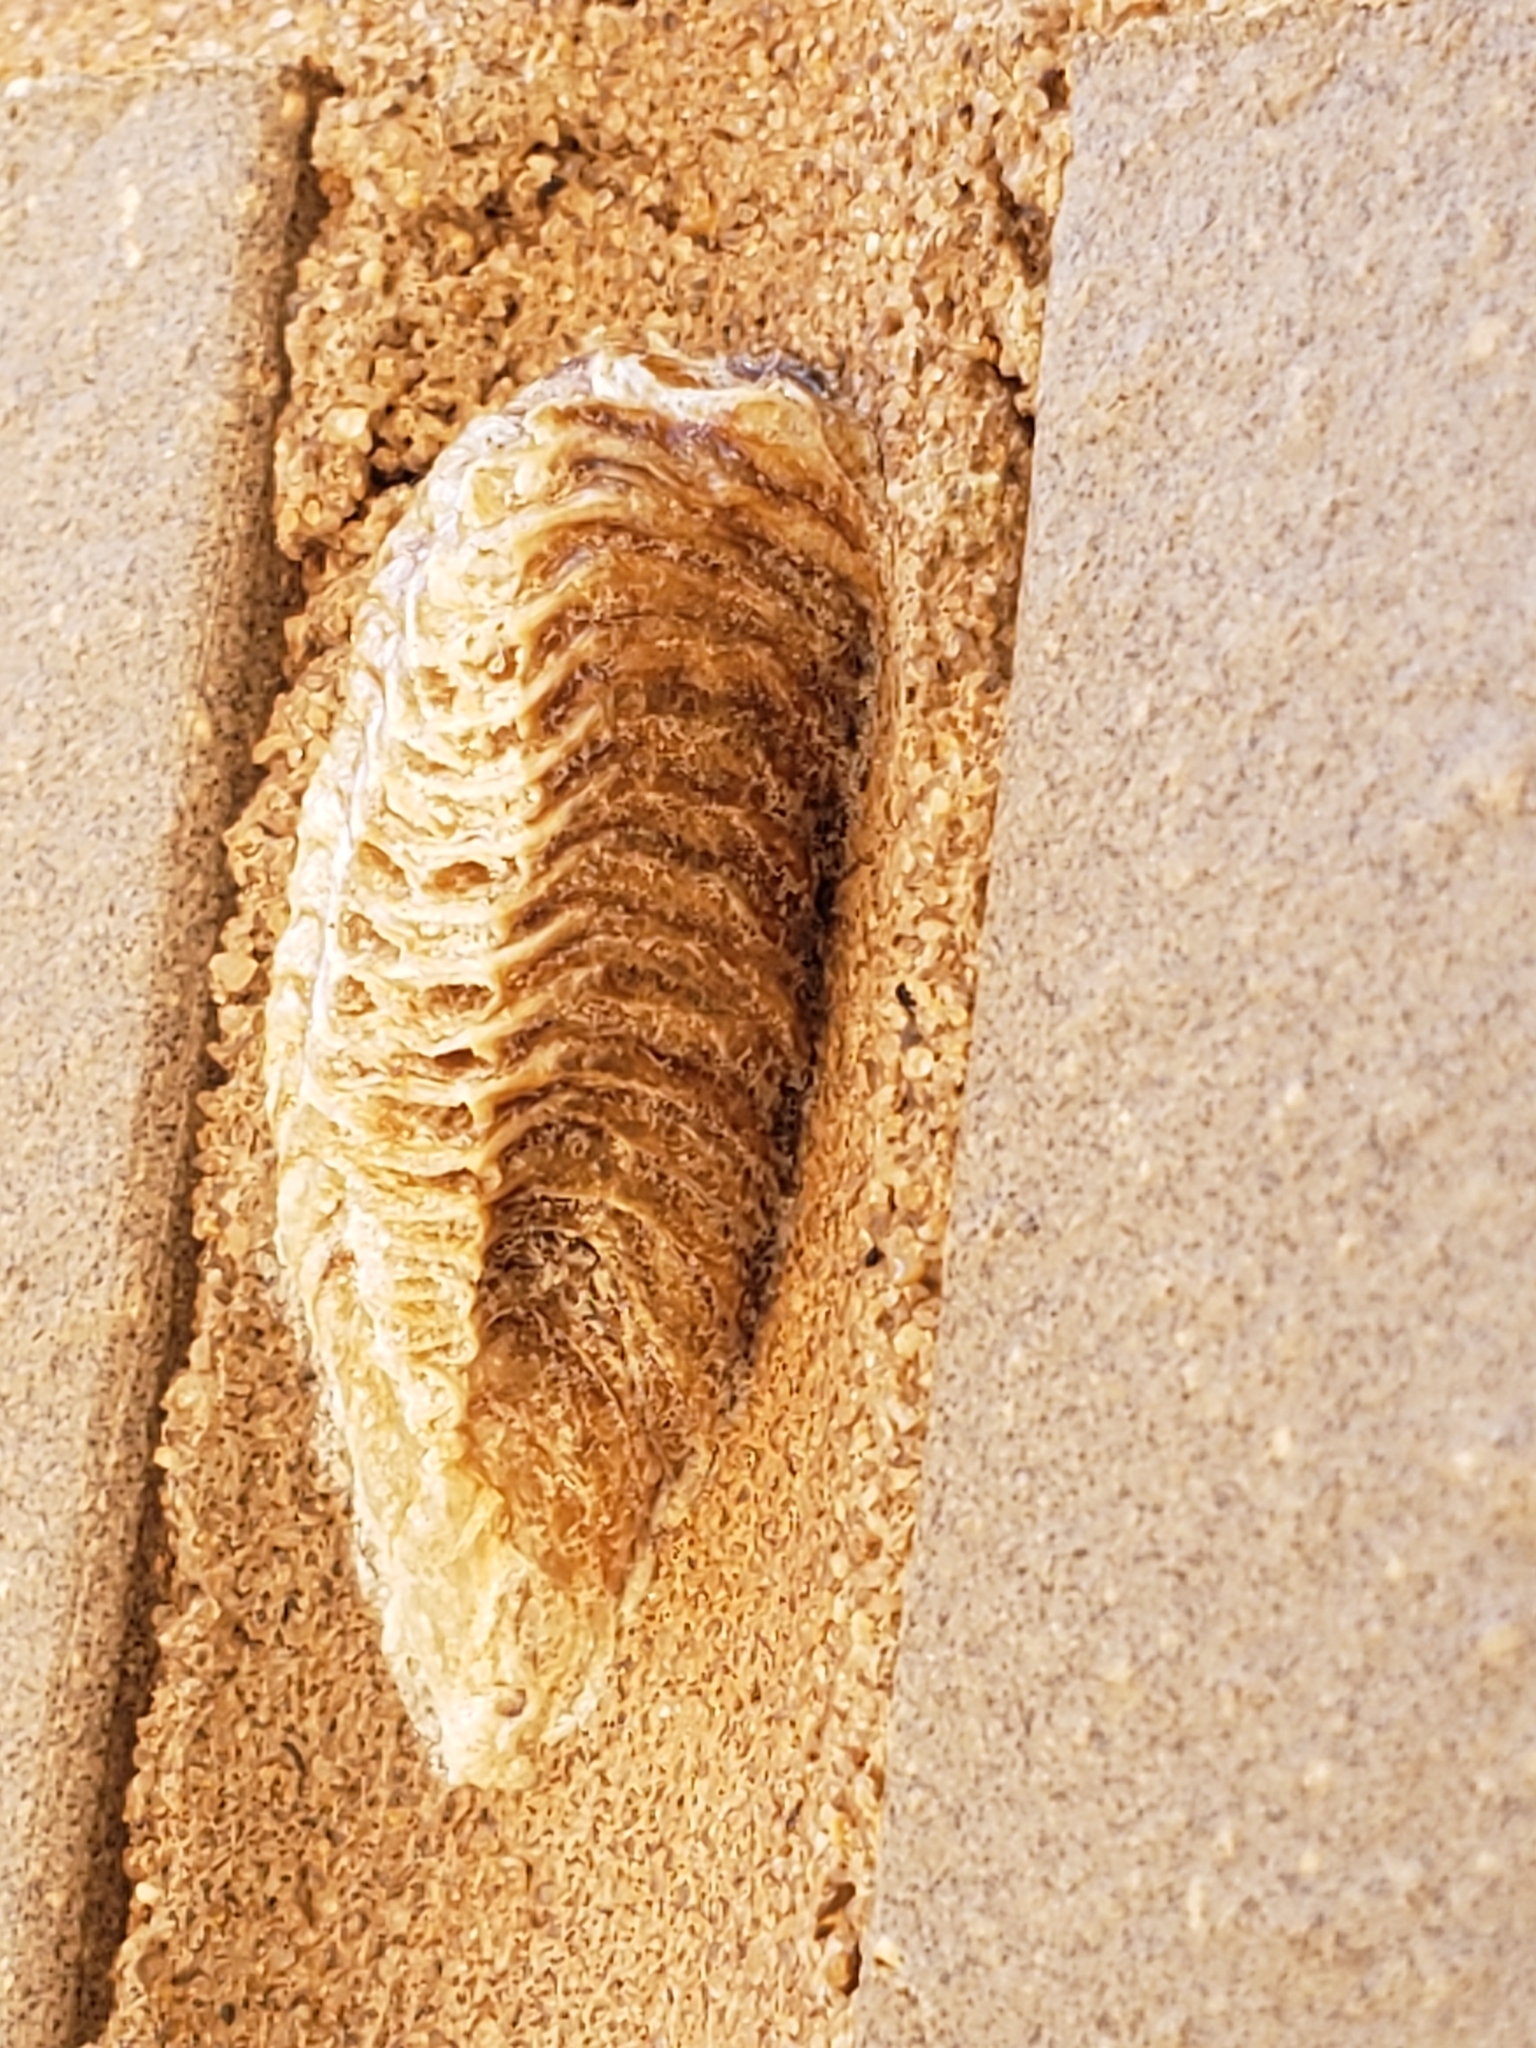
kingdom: Animalia
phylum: Arthropoda
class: Insecta
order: Mantodea
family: Mantidae
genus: Stagmomantis
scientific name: Stagmomantis carolina
